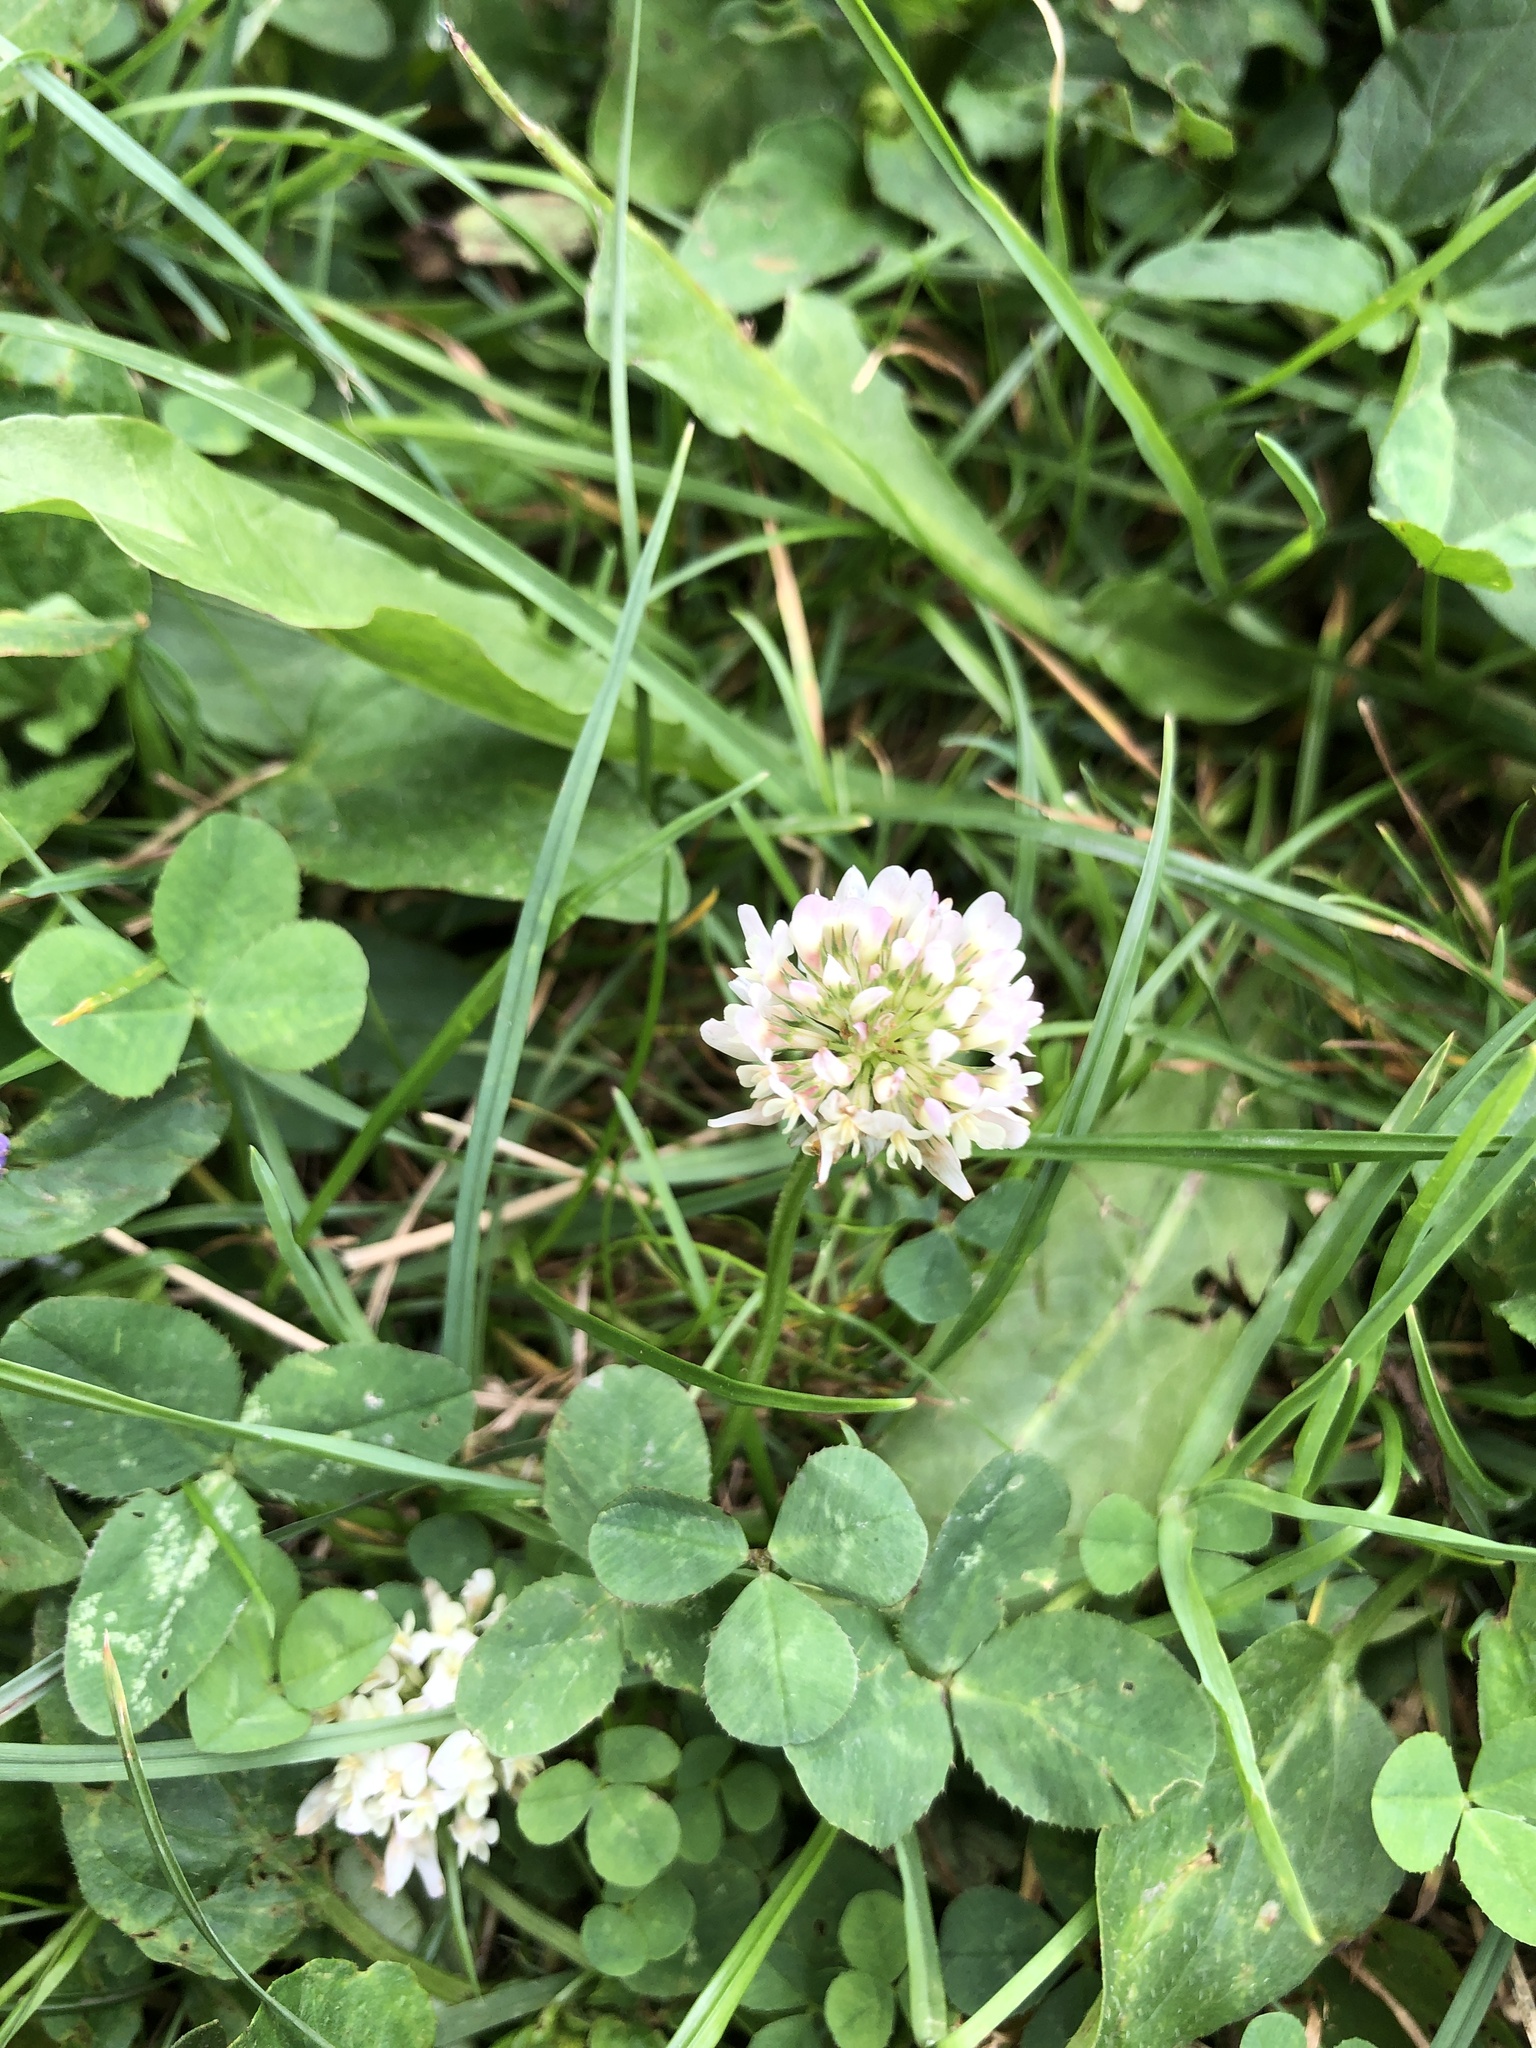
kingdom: Plantae
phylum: Tracheophyta
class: Magnoliopsida
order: Fabales
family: Fabaceae
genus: Trifolium
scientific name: Trifolium repens
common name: White clover
